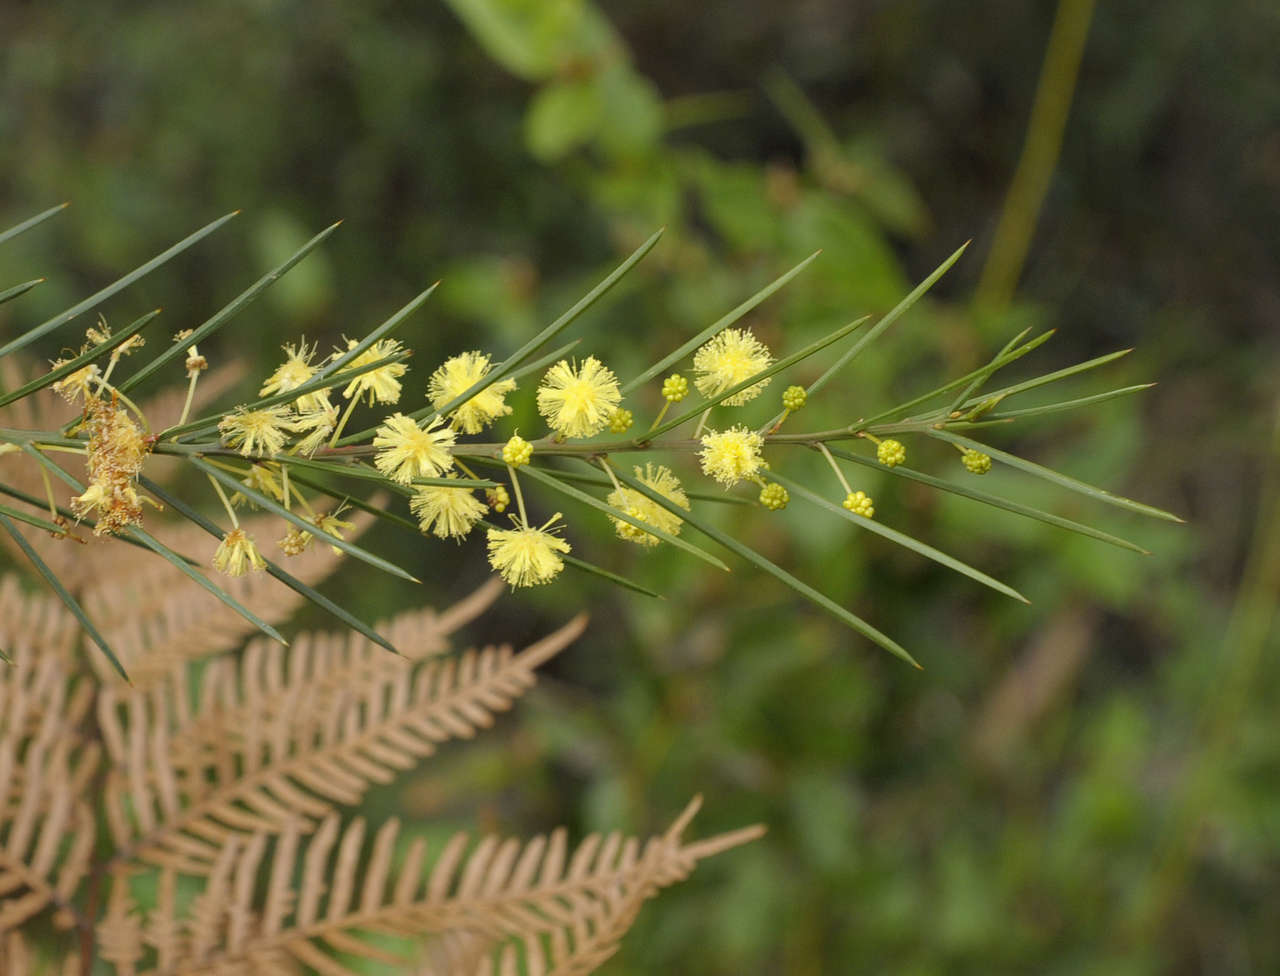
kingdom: Plantae
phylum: Tracheophyta
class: Magnoliopsida
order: Fabales
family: Fabaceae
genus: Acacia
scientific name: Acacia genistifolia
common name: Early wattle
